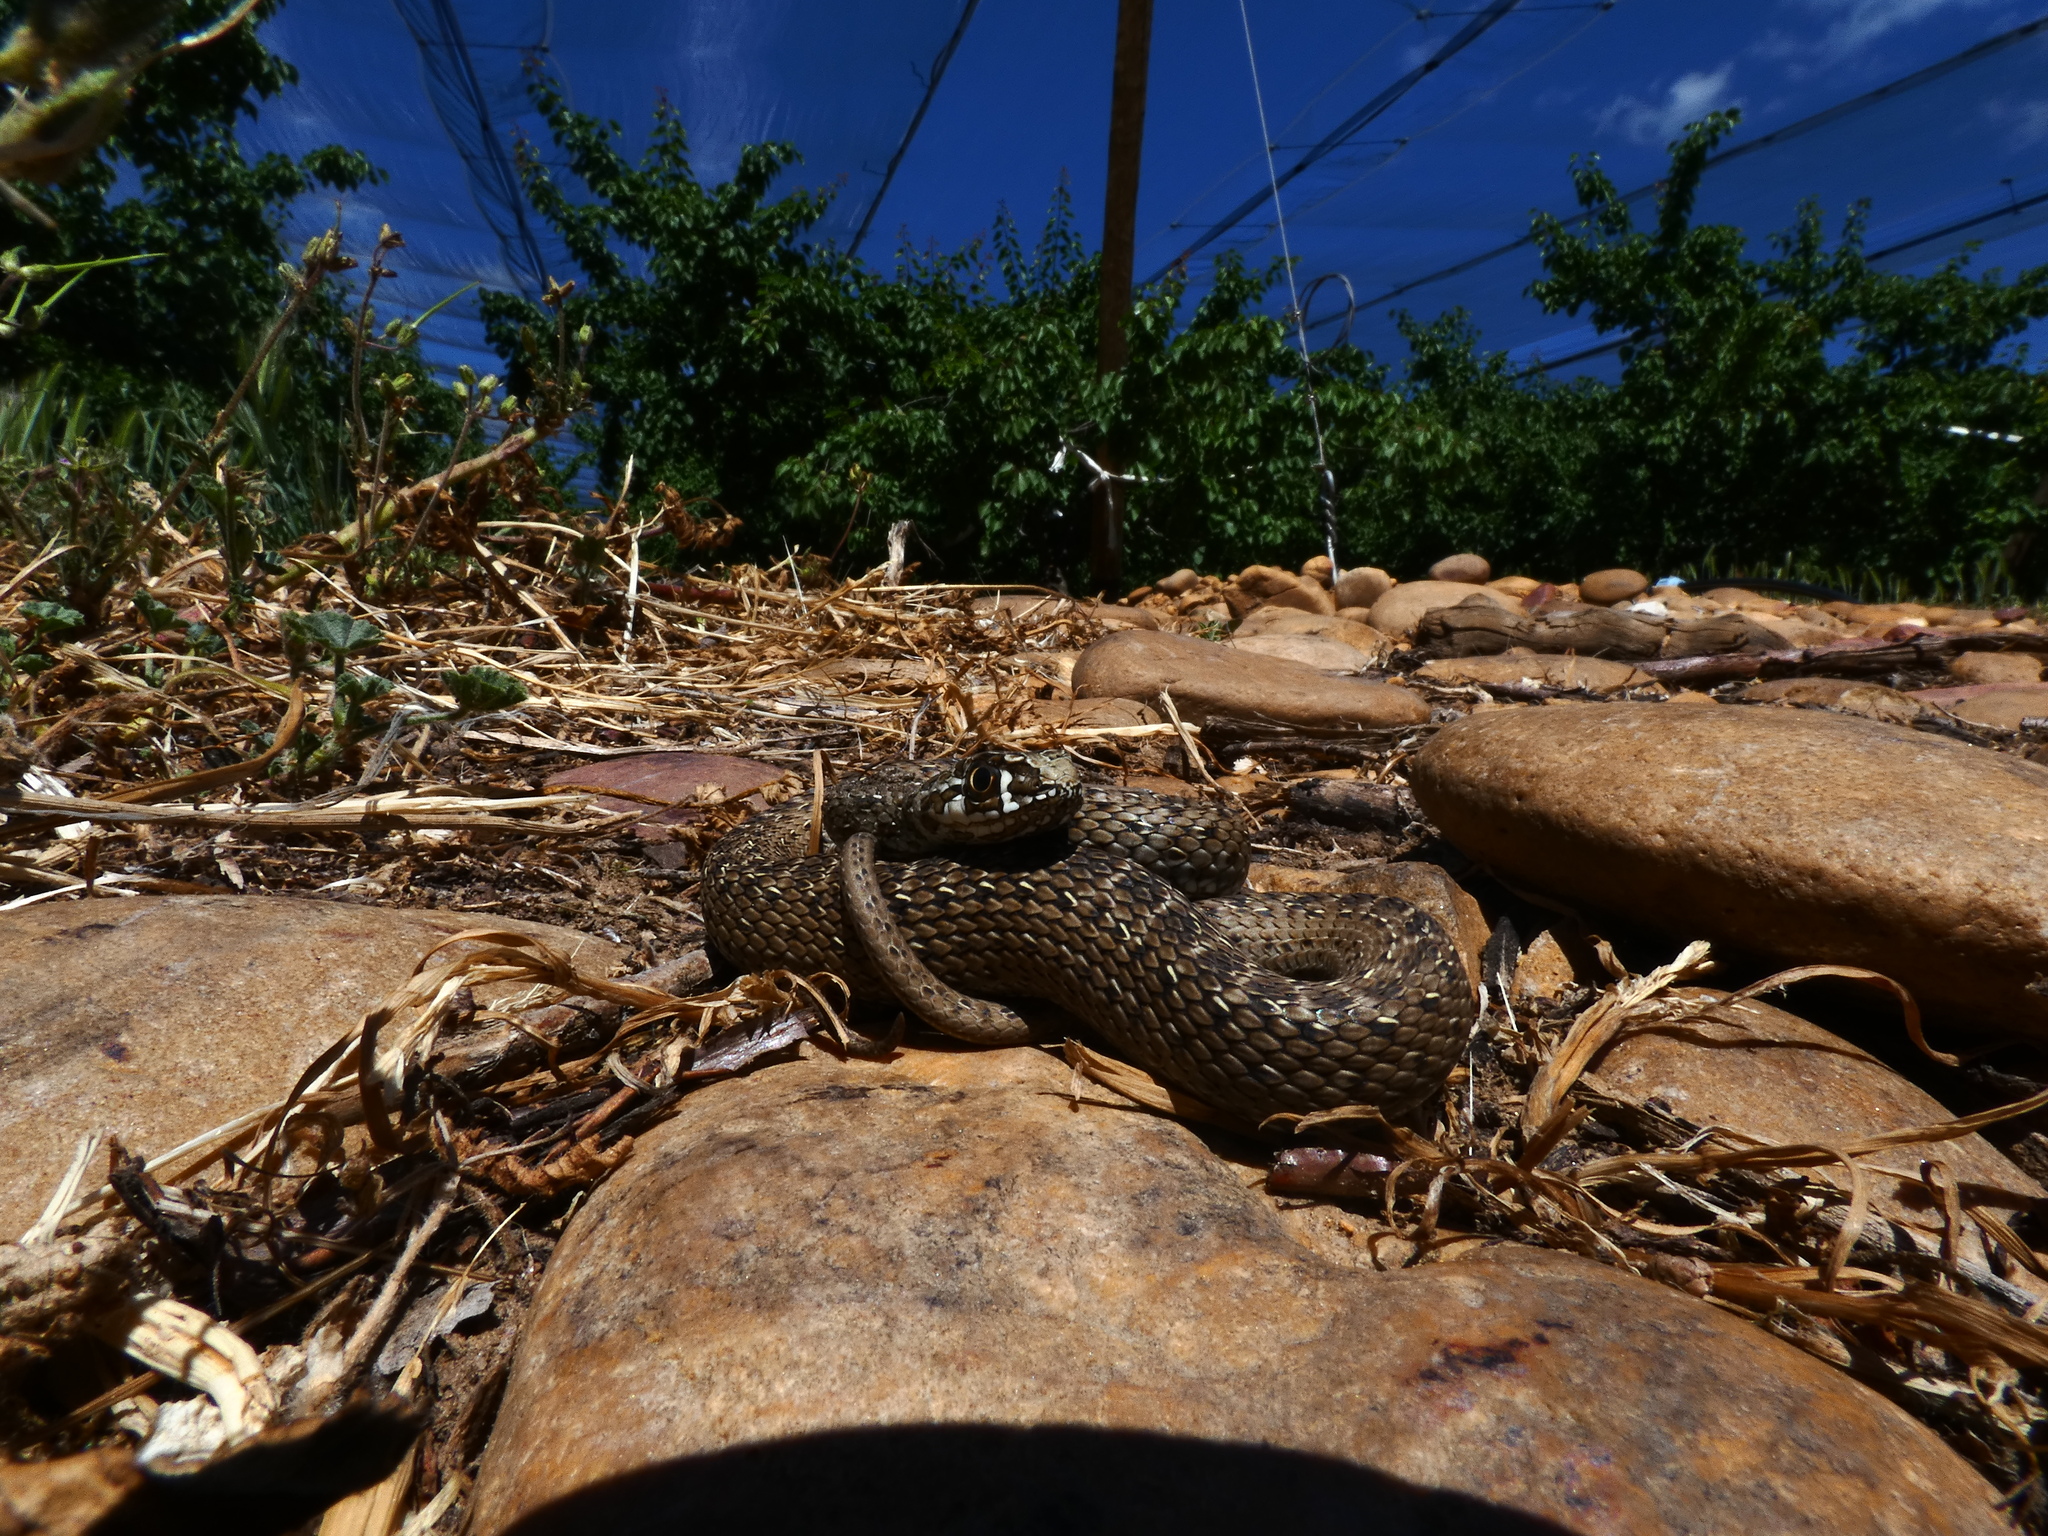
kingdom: Animalia
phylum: Chordata
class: Squamata
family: Psammophiidae
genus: Malpolon
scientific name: Malpolon monspessulanus
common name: Montpellier snake
